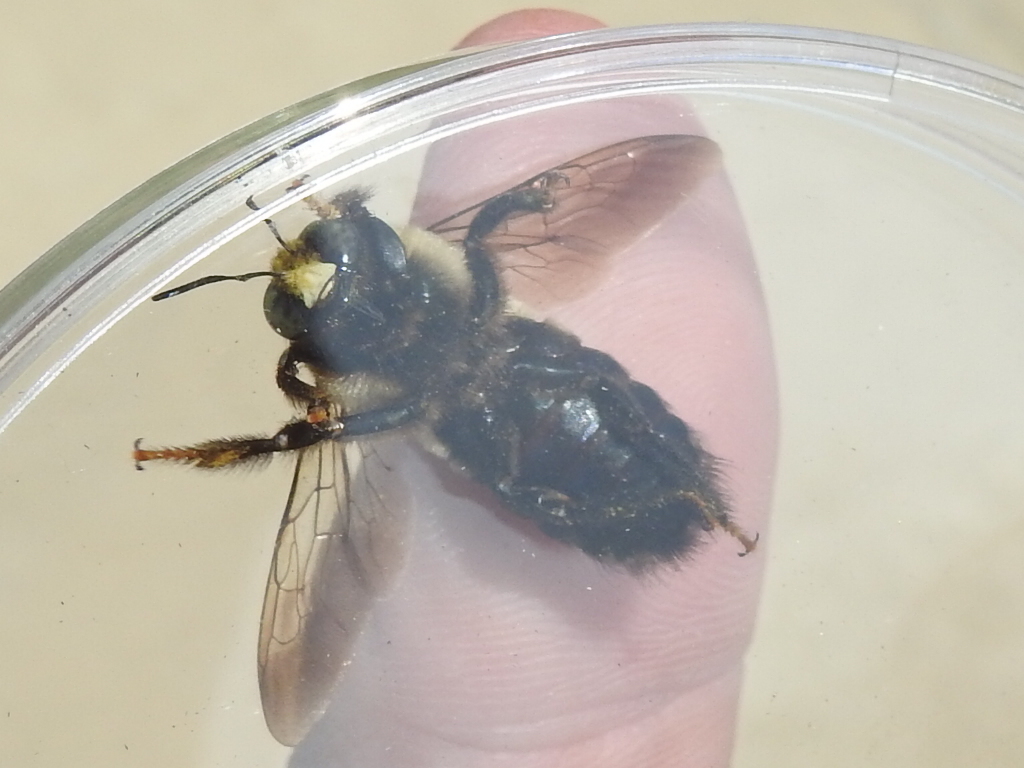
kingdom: Animalia
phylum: Arthropoda
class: Insecta
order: Hymenoptera
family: Apidae
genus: Xylocopa
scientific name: Xylocopa virginica
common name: Carpenter bee
